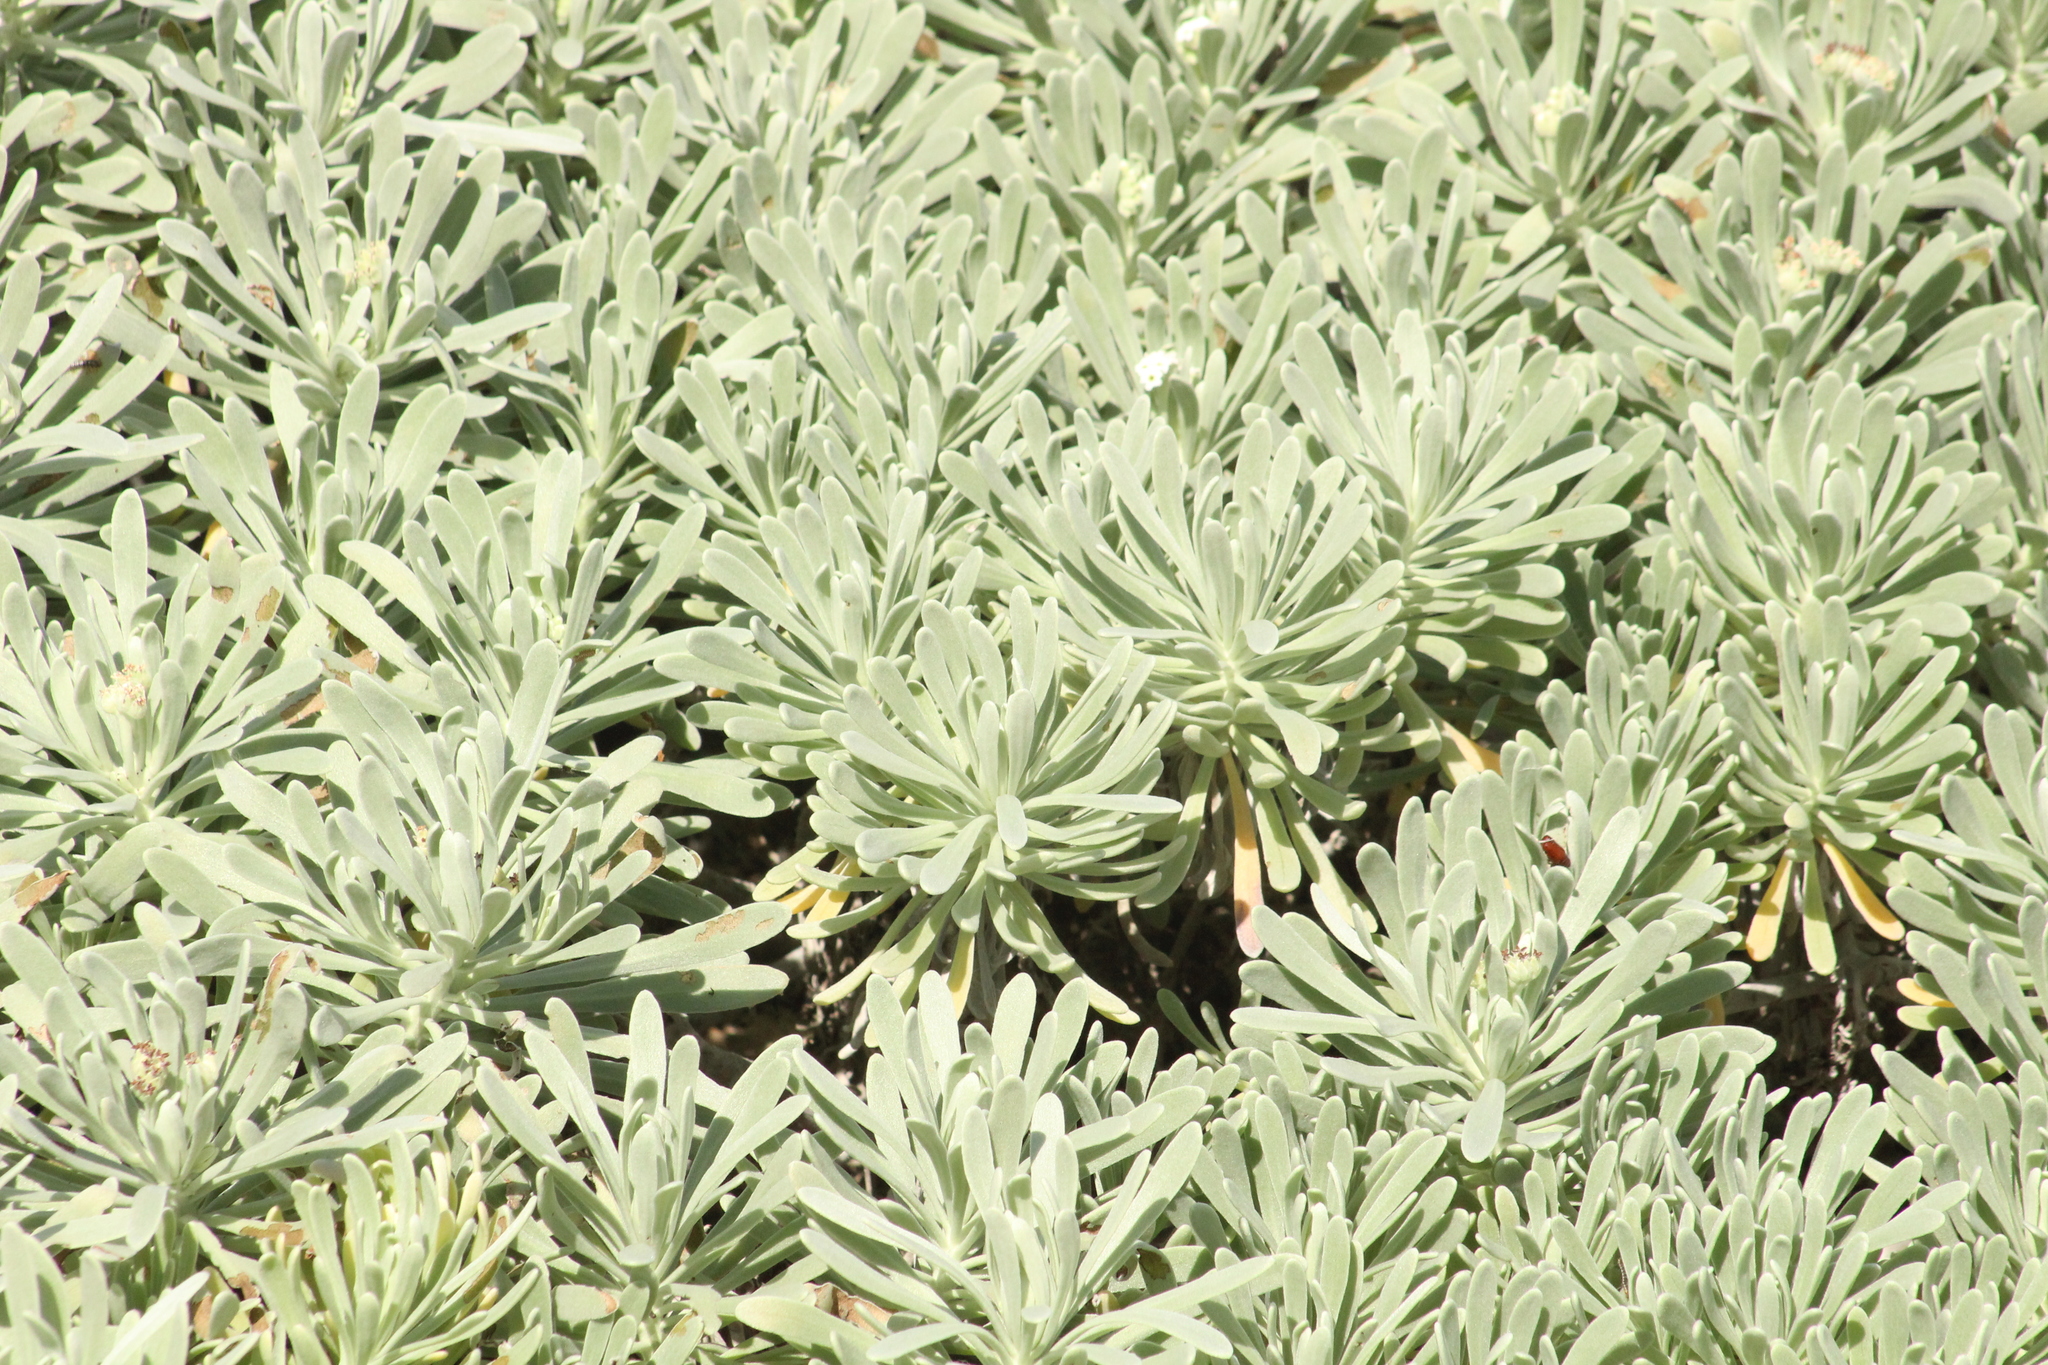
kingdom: Plantae
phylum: Tracheophyta
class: Magnoliopsida
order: Boraginales
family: Heliotropiaceae
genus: Tournefortia
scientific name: Tournefortia gnaphalodes
